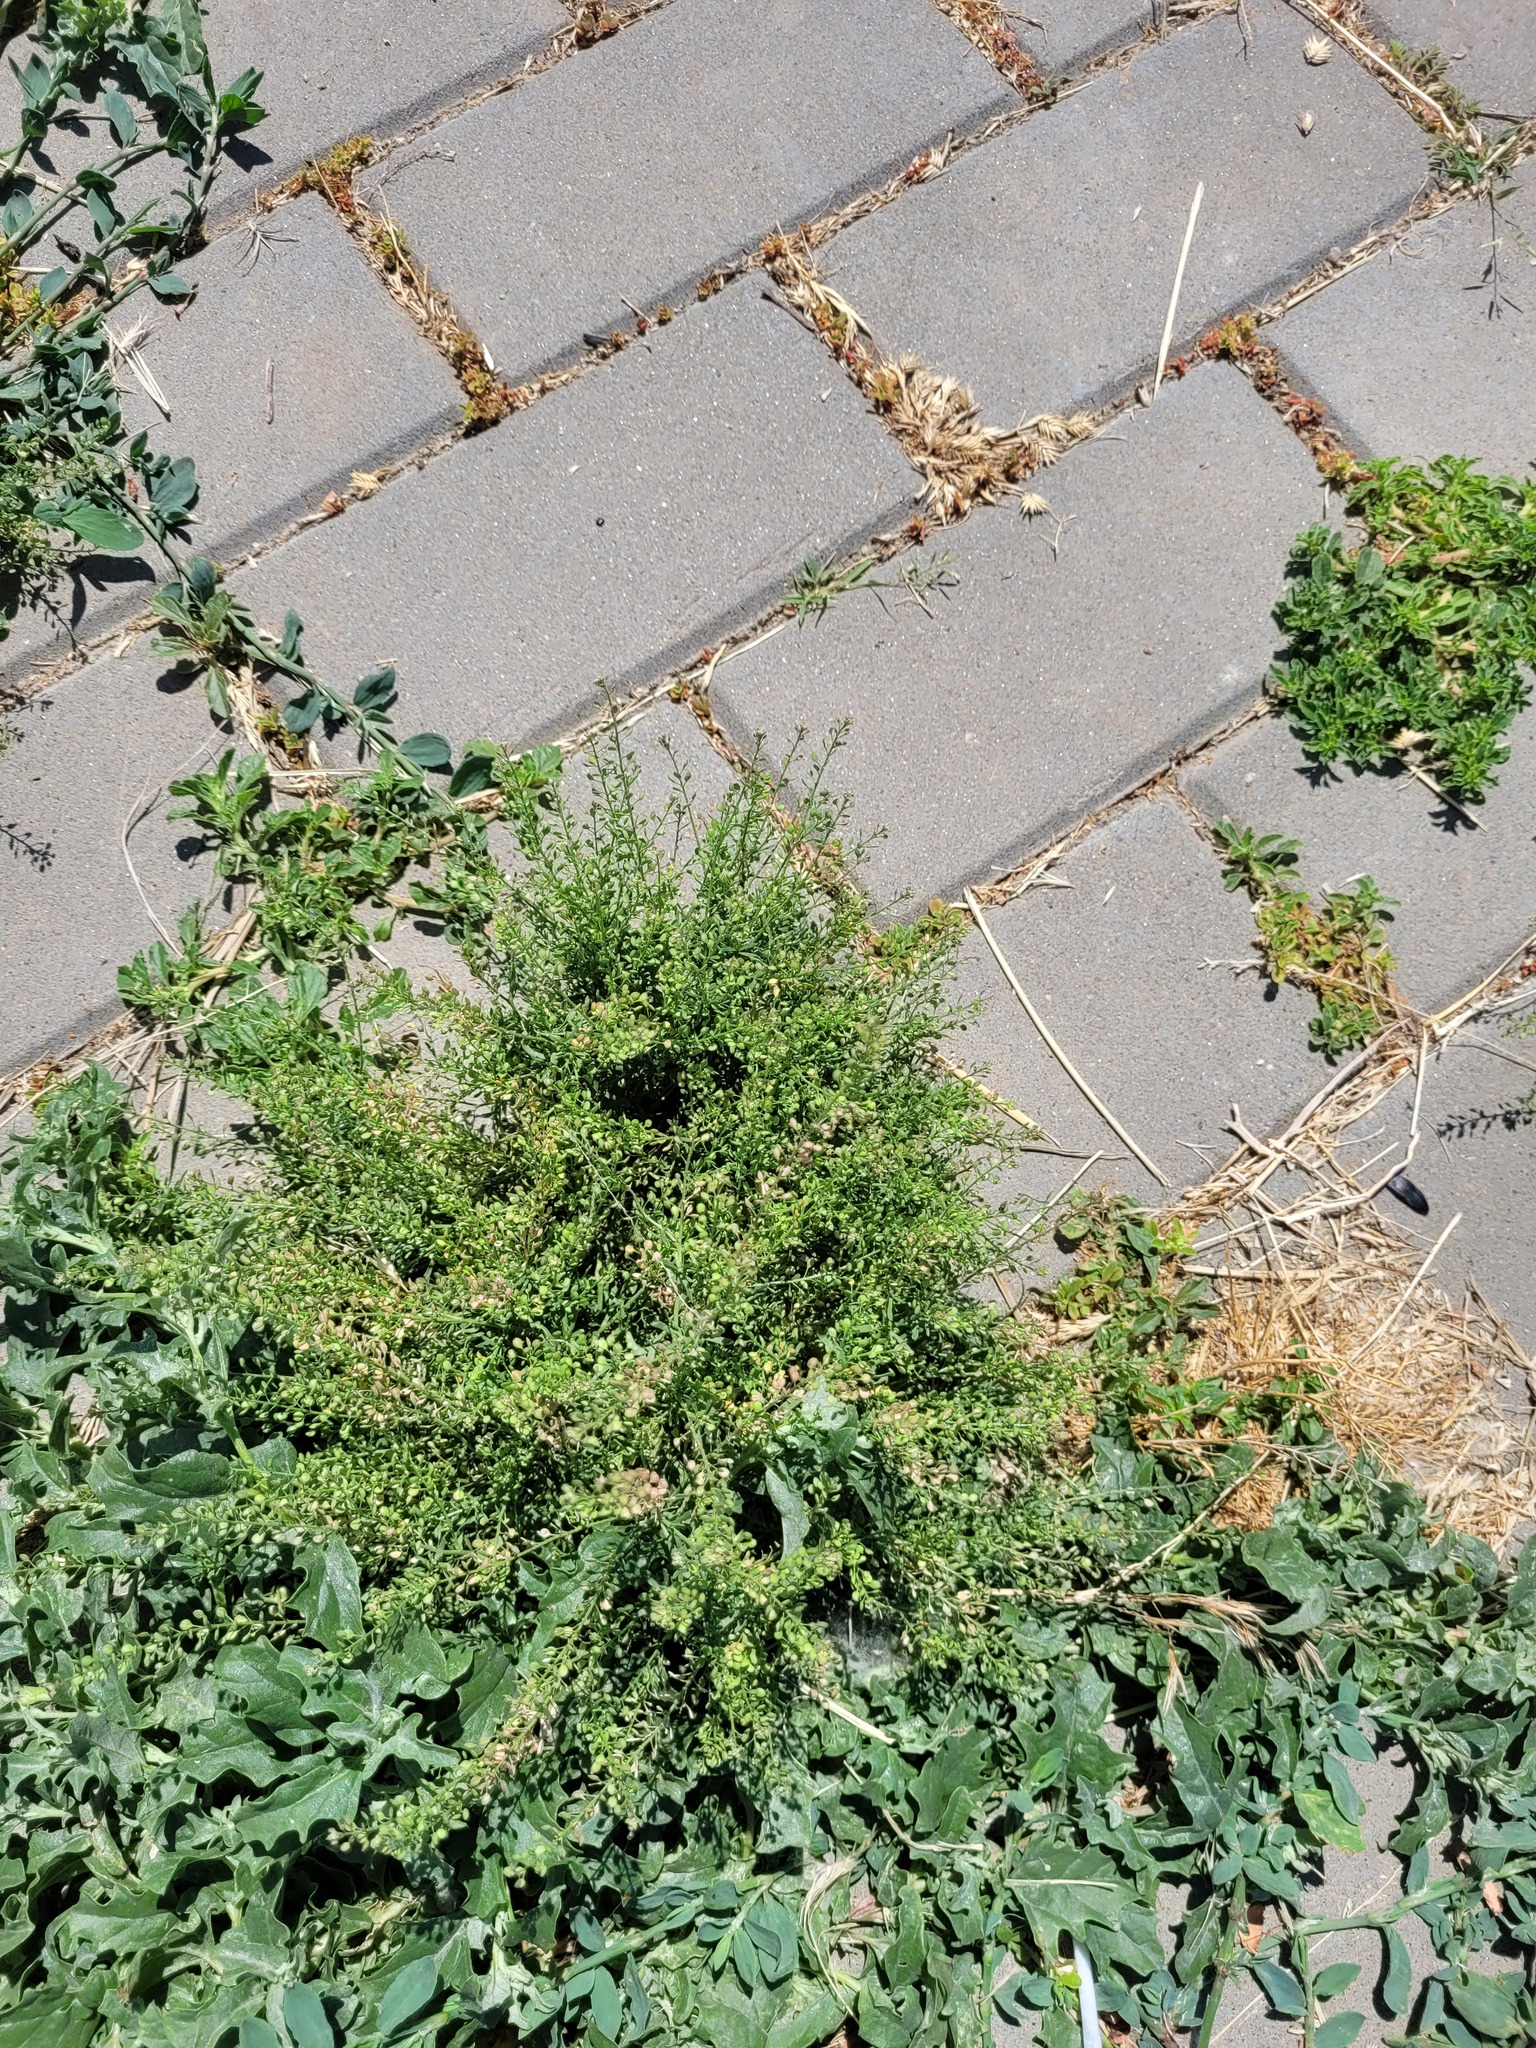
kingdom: Plantae
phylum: Tracheophyta
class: Magnoliopsida
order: Brassicales
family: Brassicaceae
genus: Lepidium
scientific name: Lepidium ruderale
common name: Narrow-leaved pepperwort
